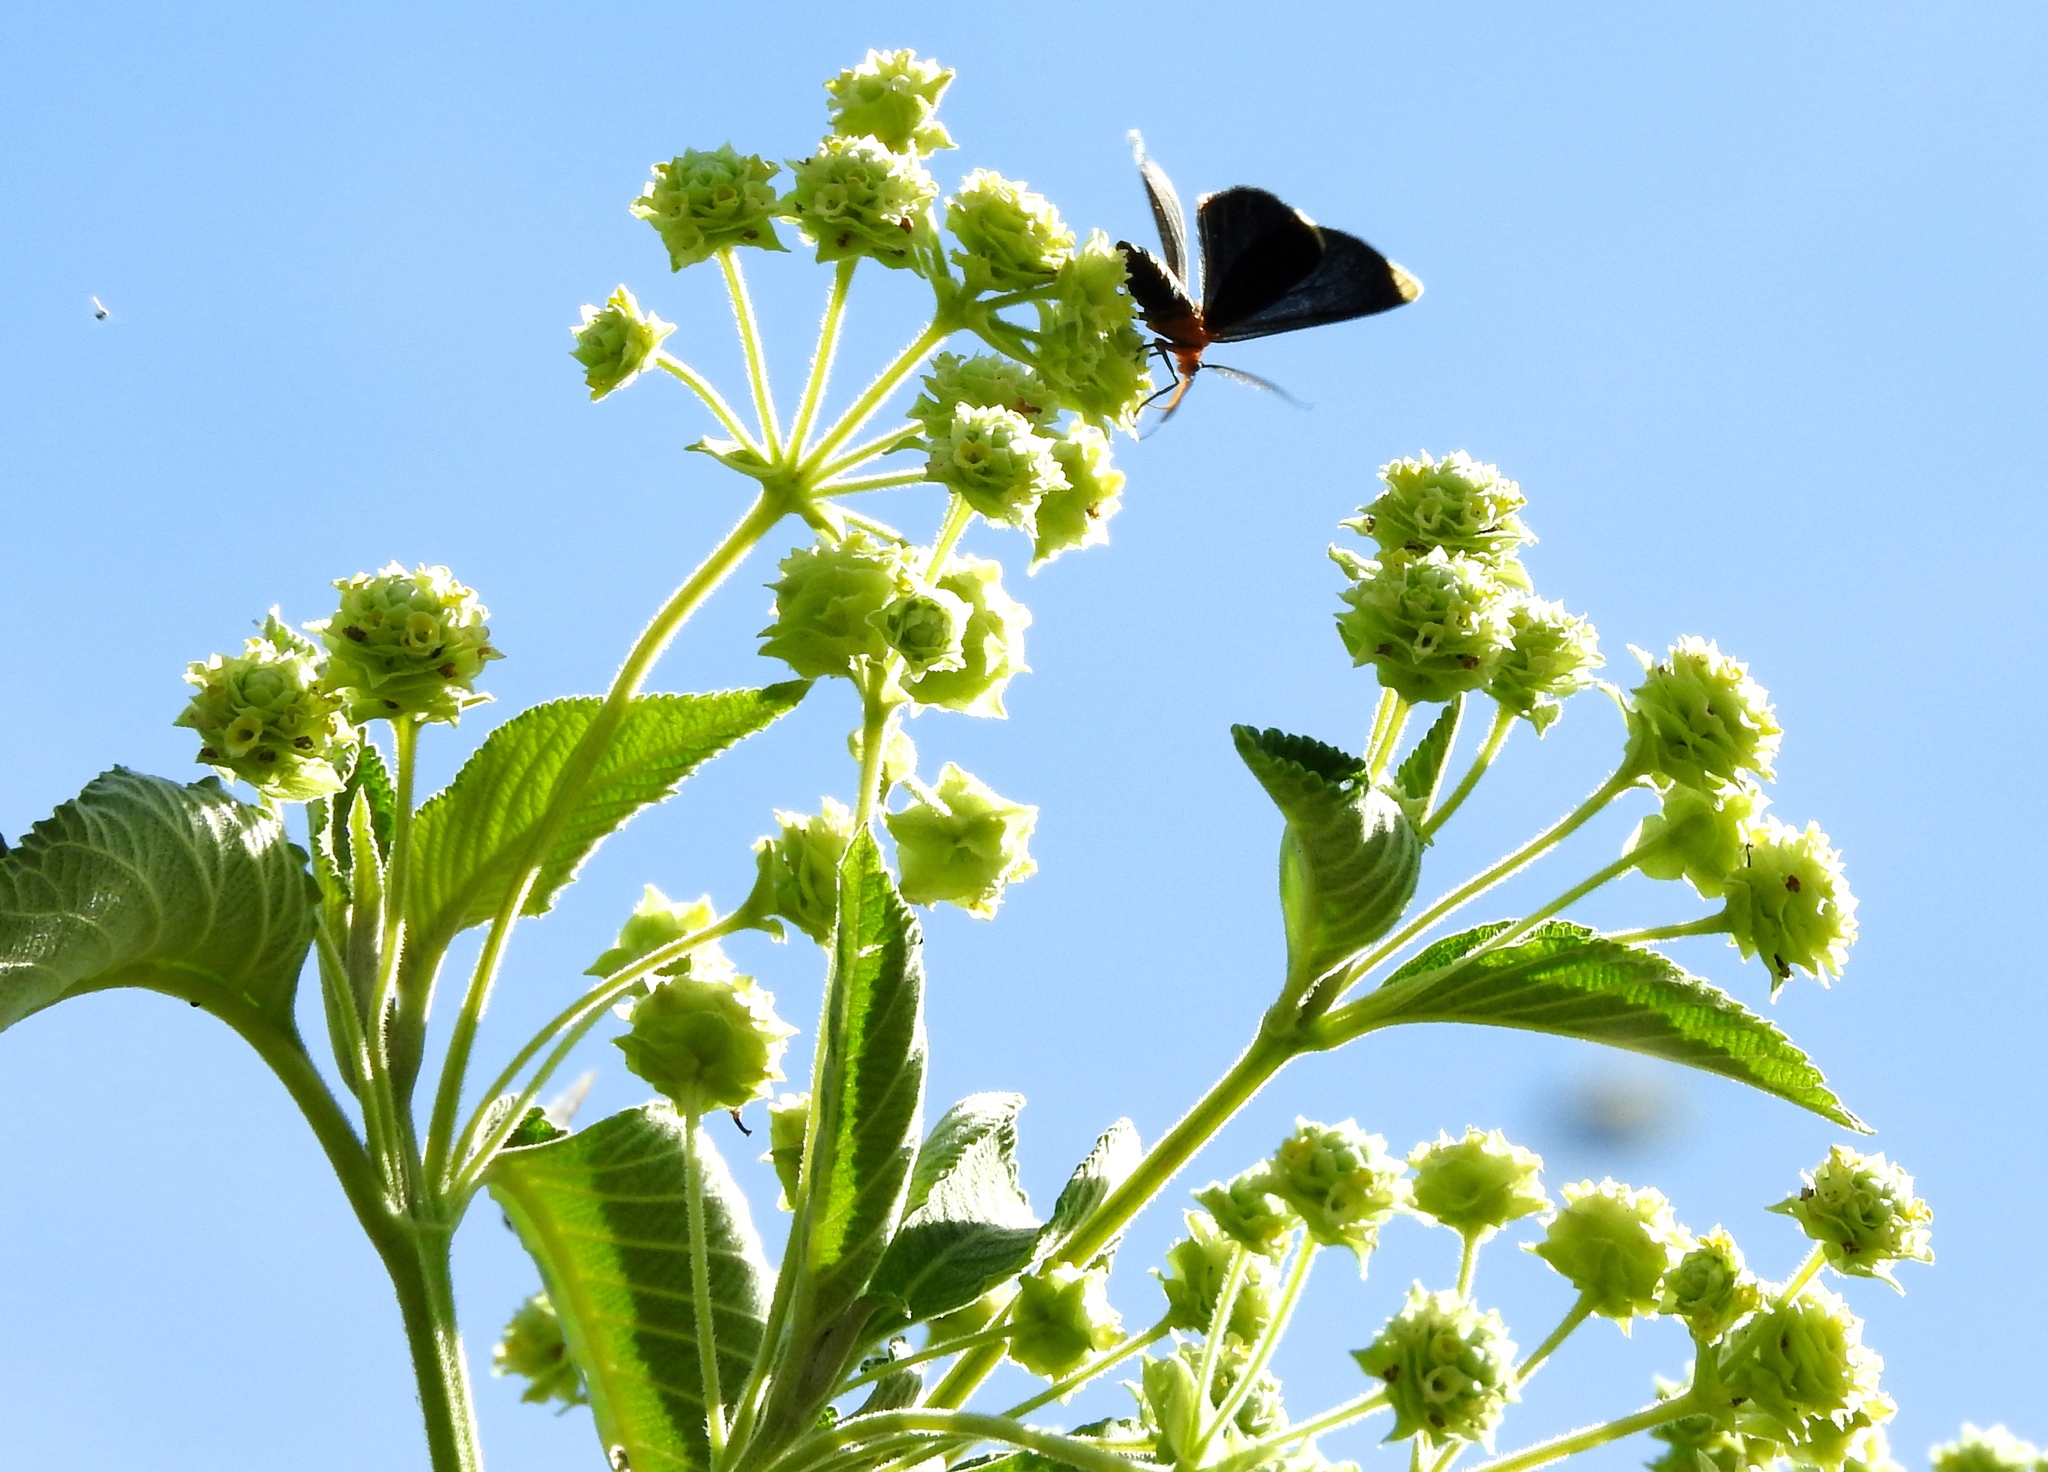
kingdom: Plantae
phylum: Tracheophyta
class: Magnoliopsida
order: Lamiales
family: Verbenaceae
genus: Lippia
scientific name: Lippia umbellata
